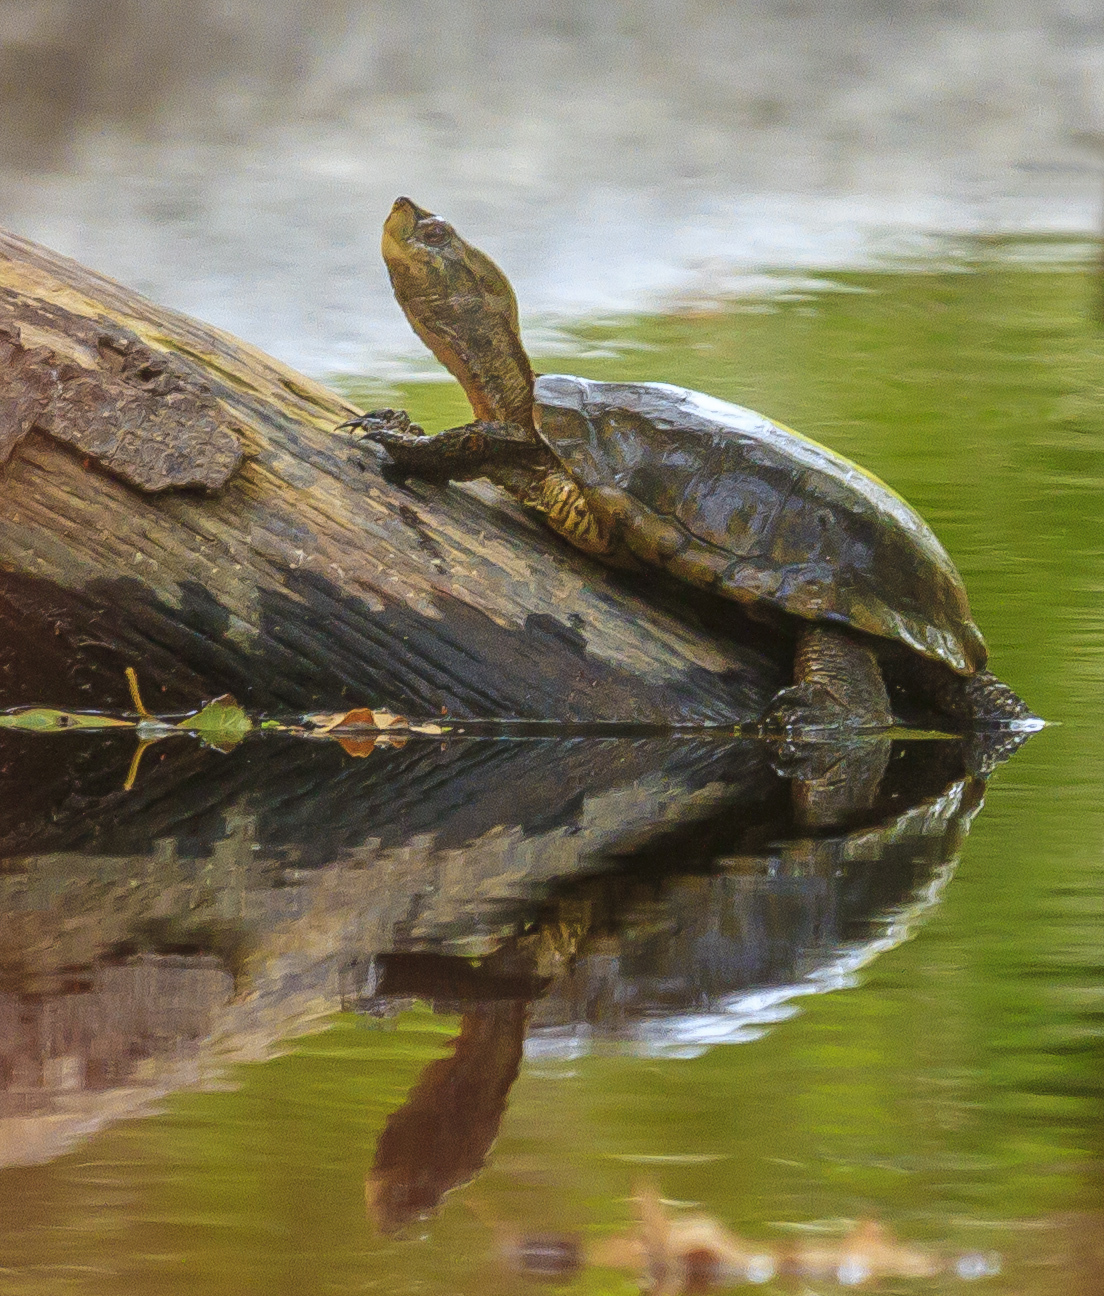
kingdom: Animalia
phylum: Chordata
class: Testudines
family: Emydidae
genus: Actinemys
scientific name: Actinemys marmorata
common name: Western pond turtle
